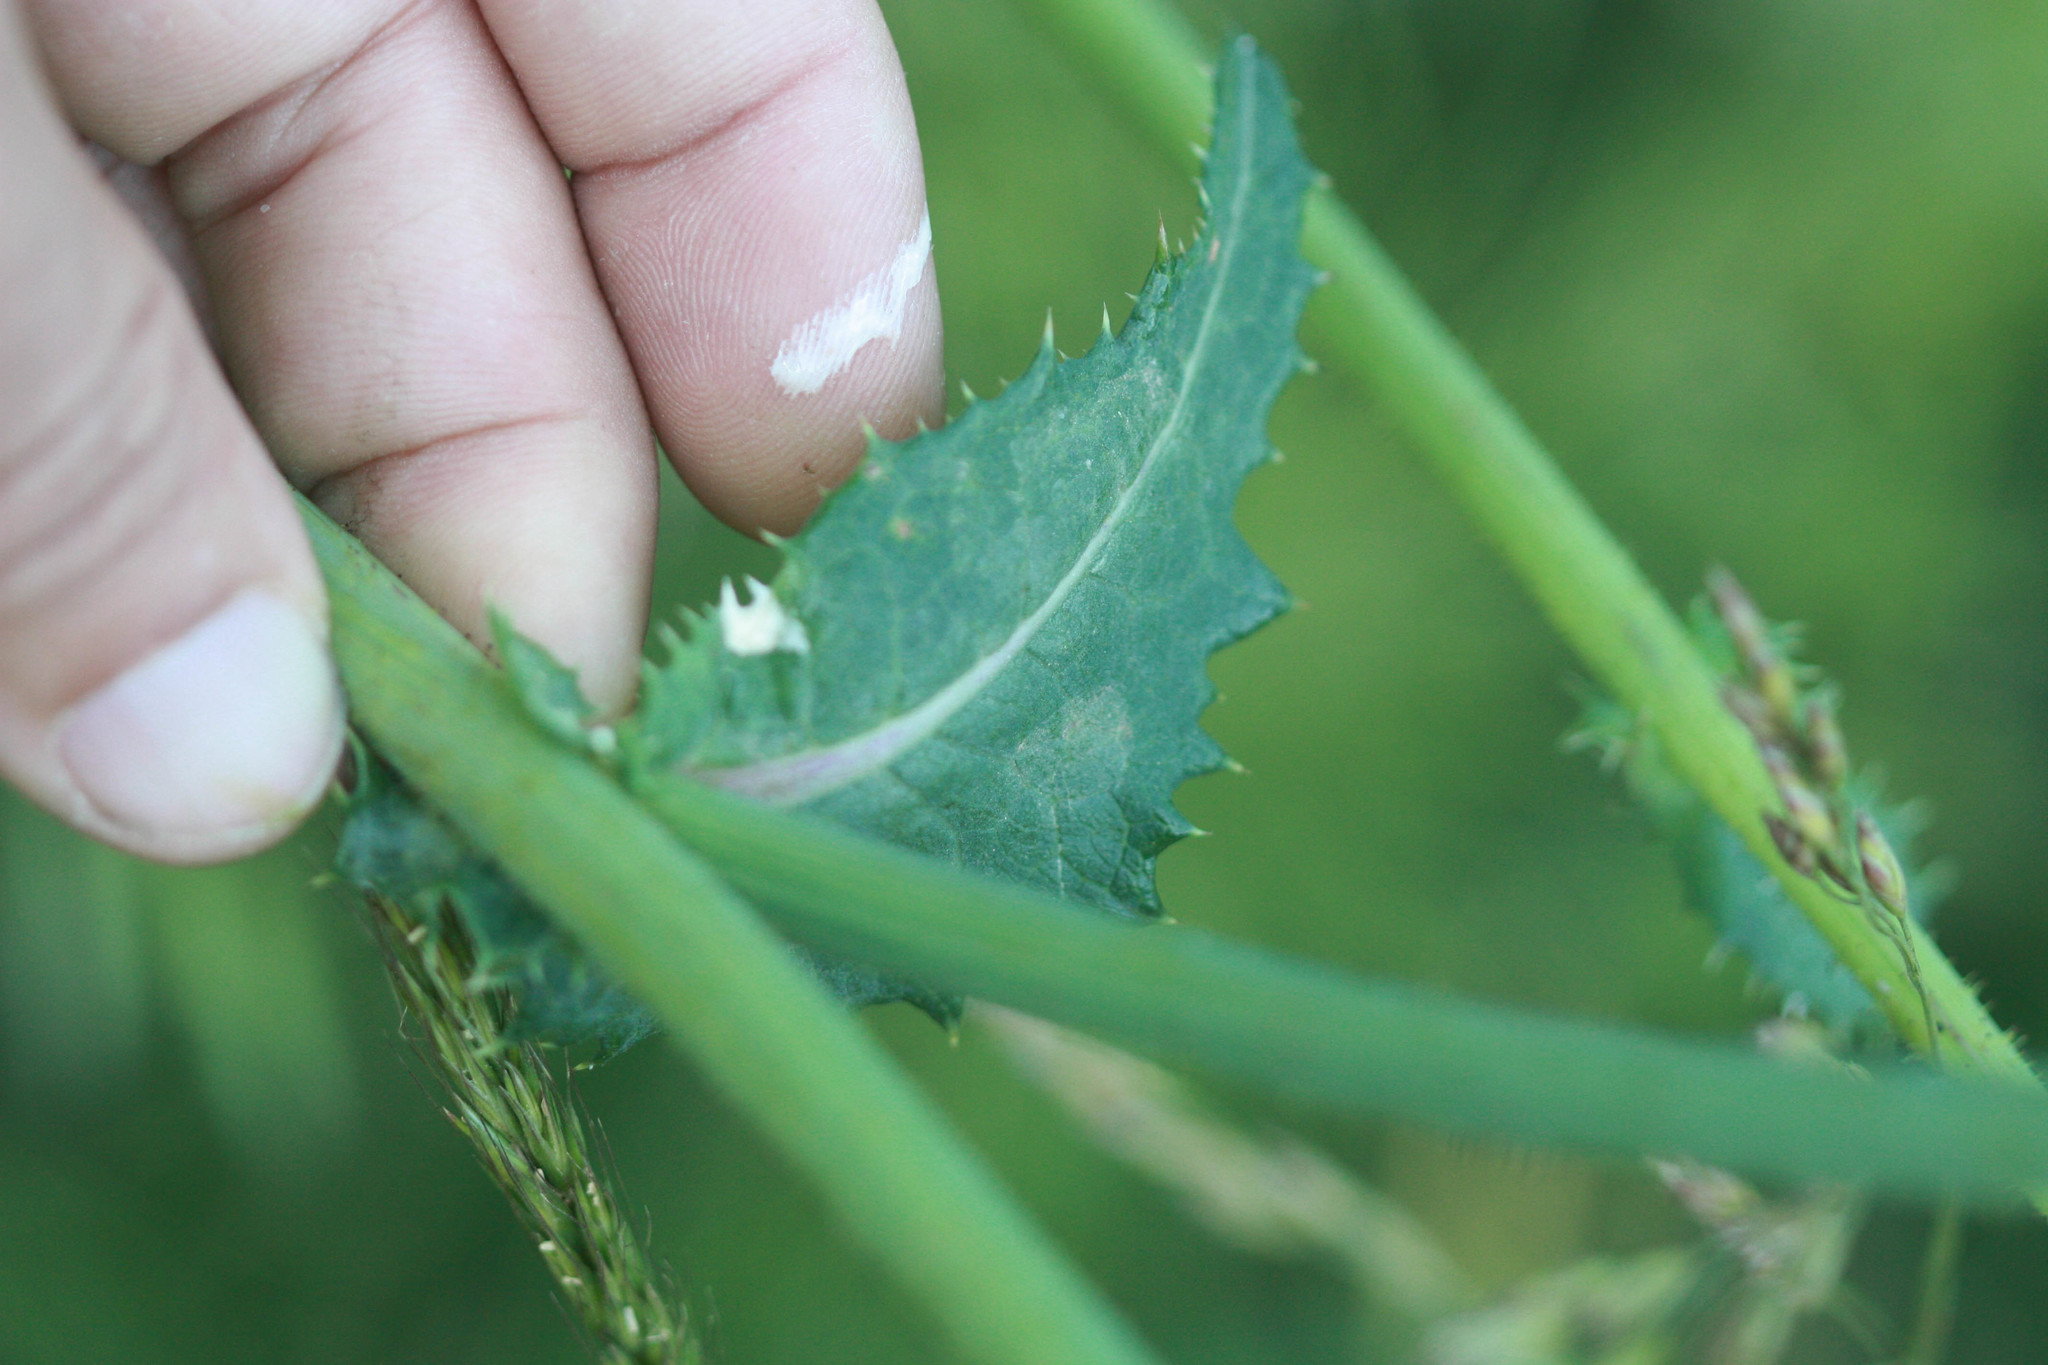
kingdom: Plantae
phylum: Tracheophyta
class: Magnoliopsida
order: Asterales
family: Asteraceae
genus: Sonchus
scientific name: Sonchus oleraceus
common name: Common sowthistle
